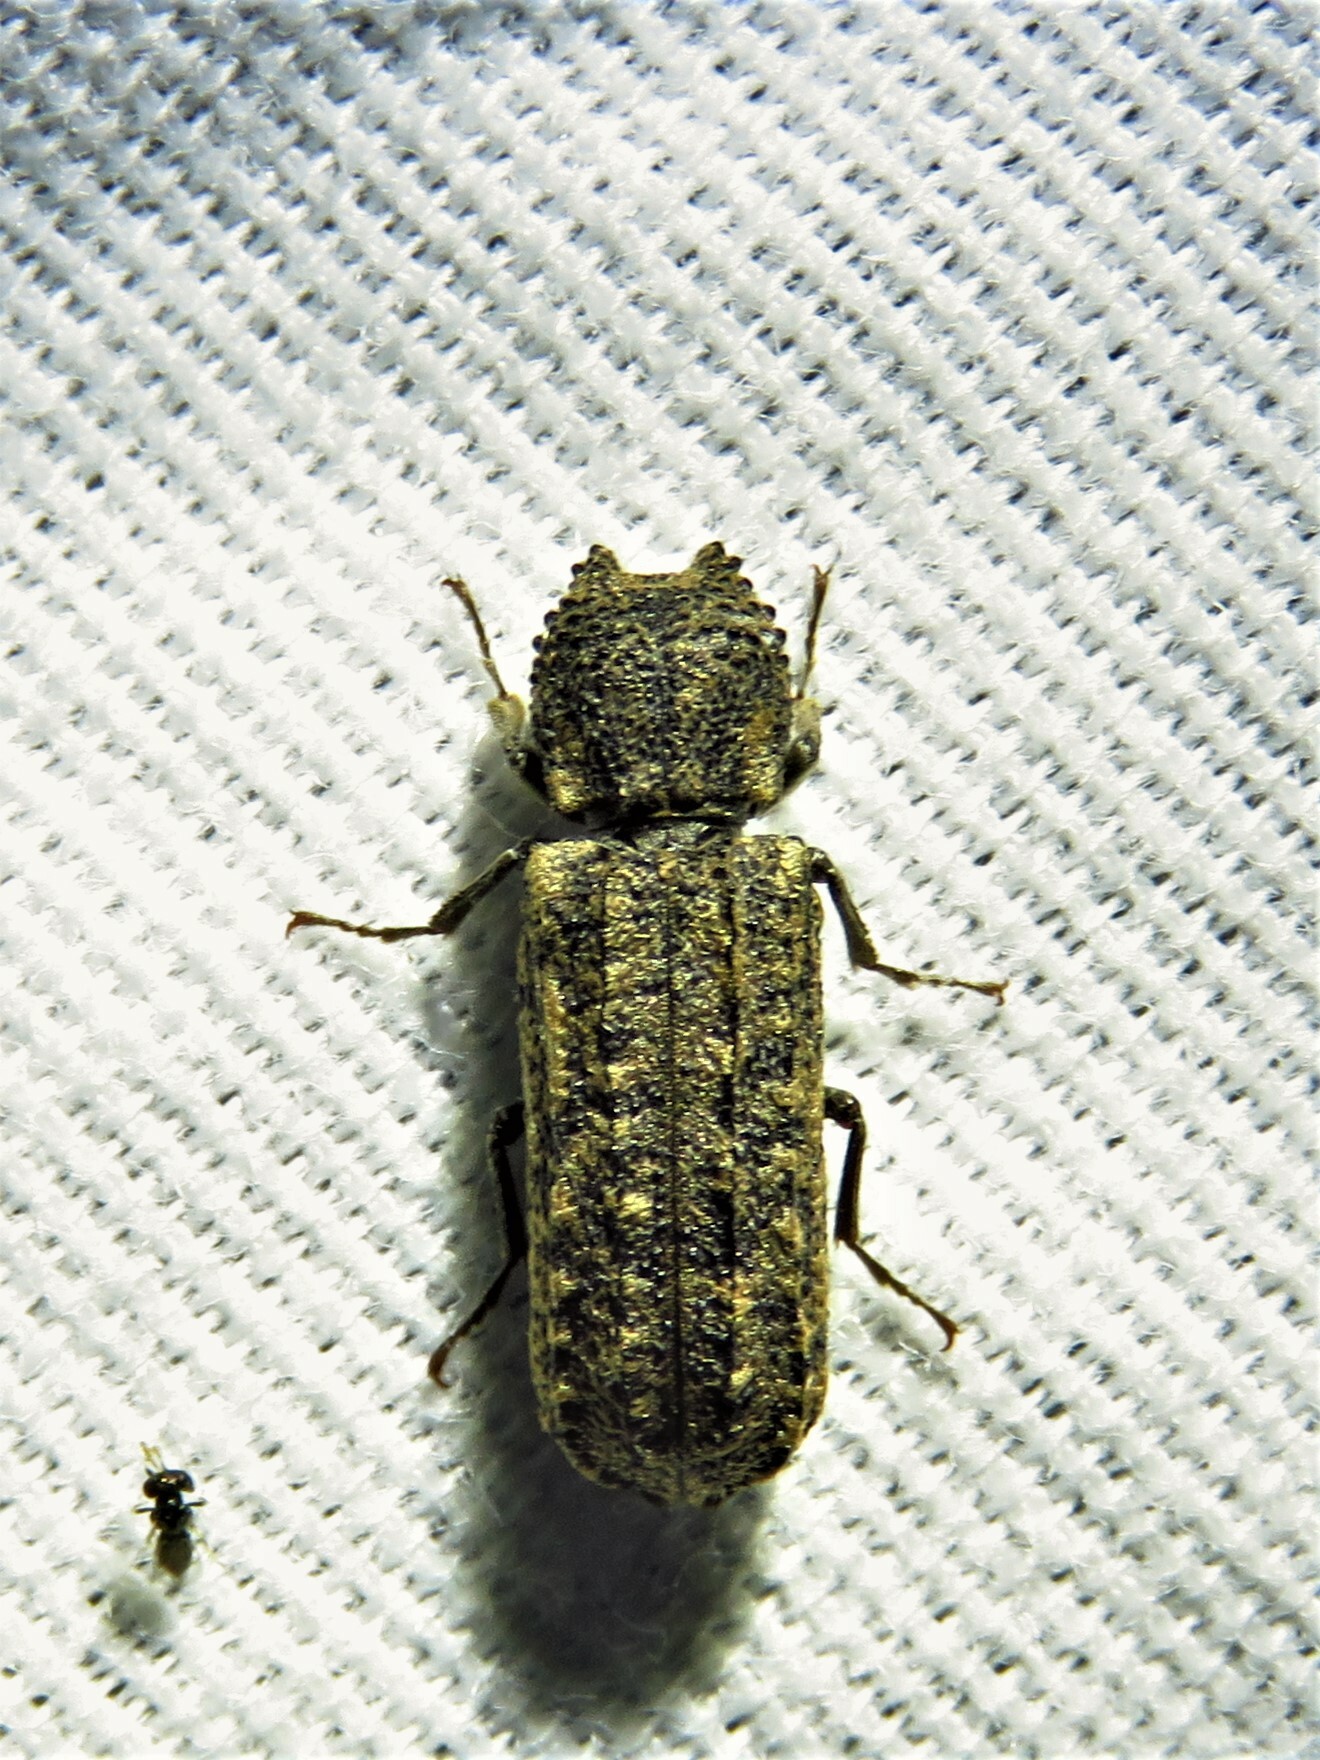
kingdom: Animalia
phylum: Arthropoda
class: Insecta
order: Coleoptera
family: Bostrichidae
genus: Lichenophanes
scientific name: Lichenophanes bicornis
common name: Two-horned powder-post beetle
